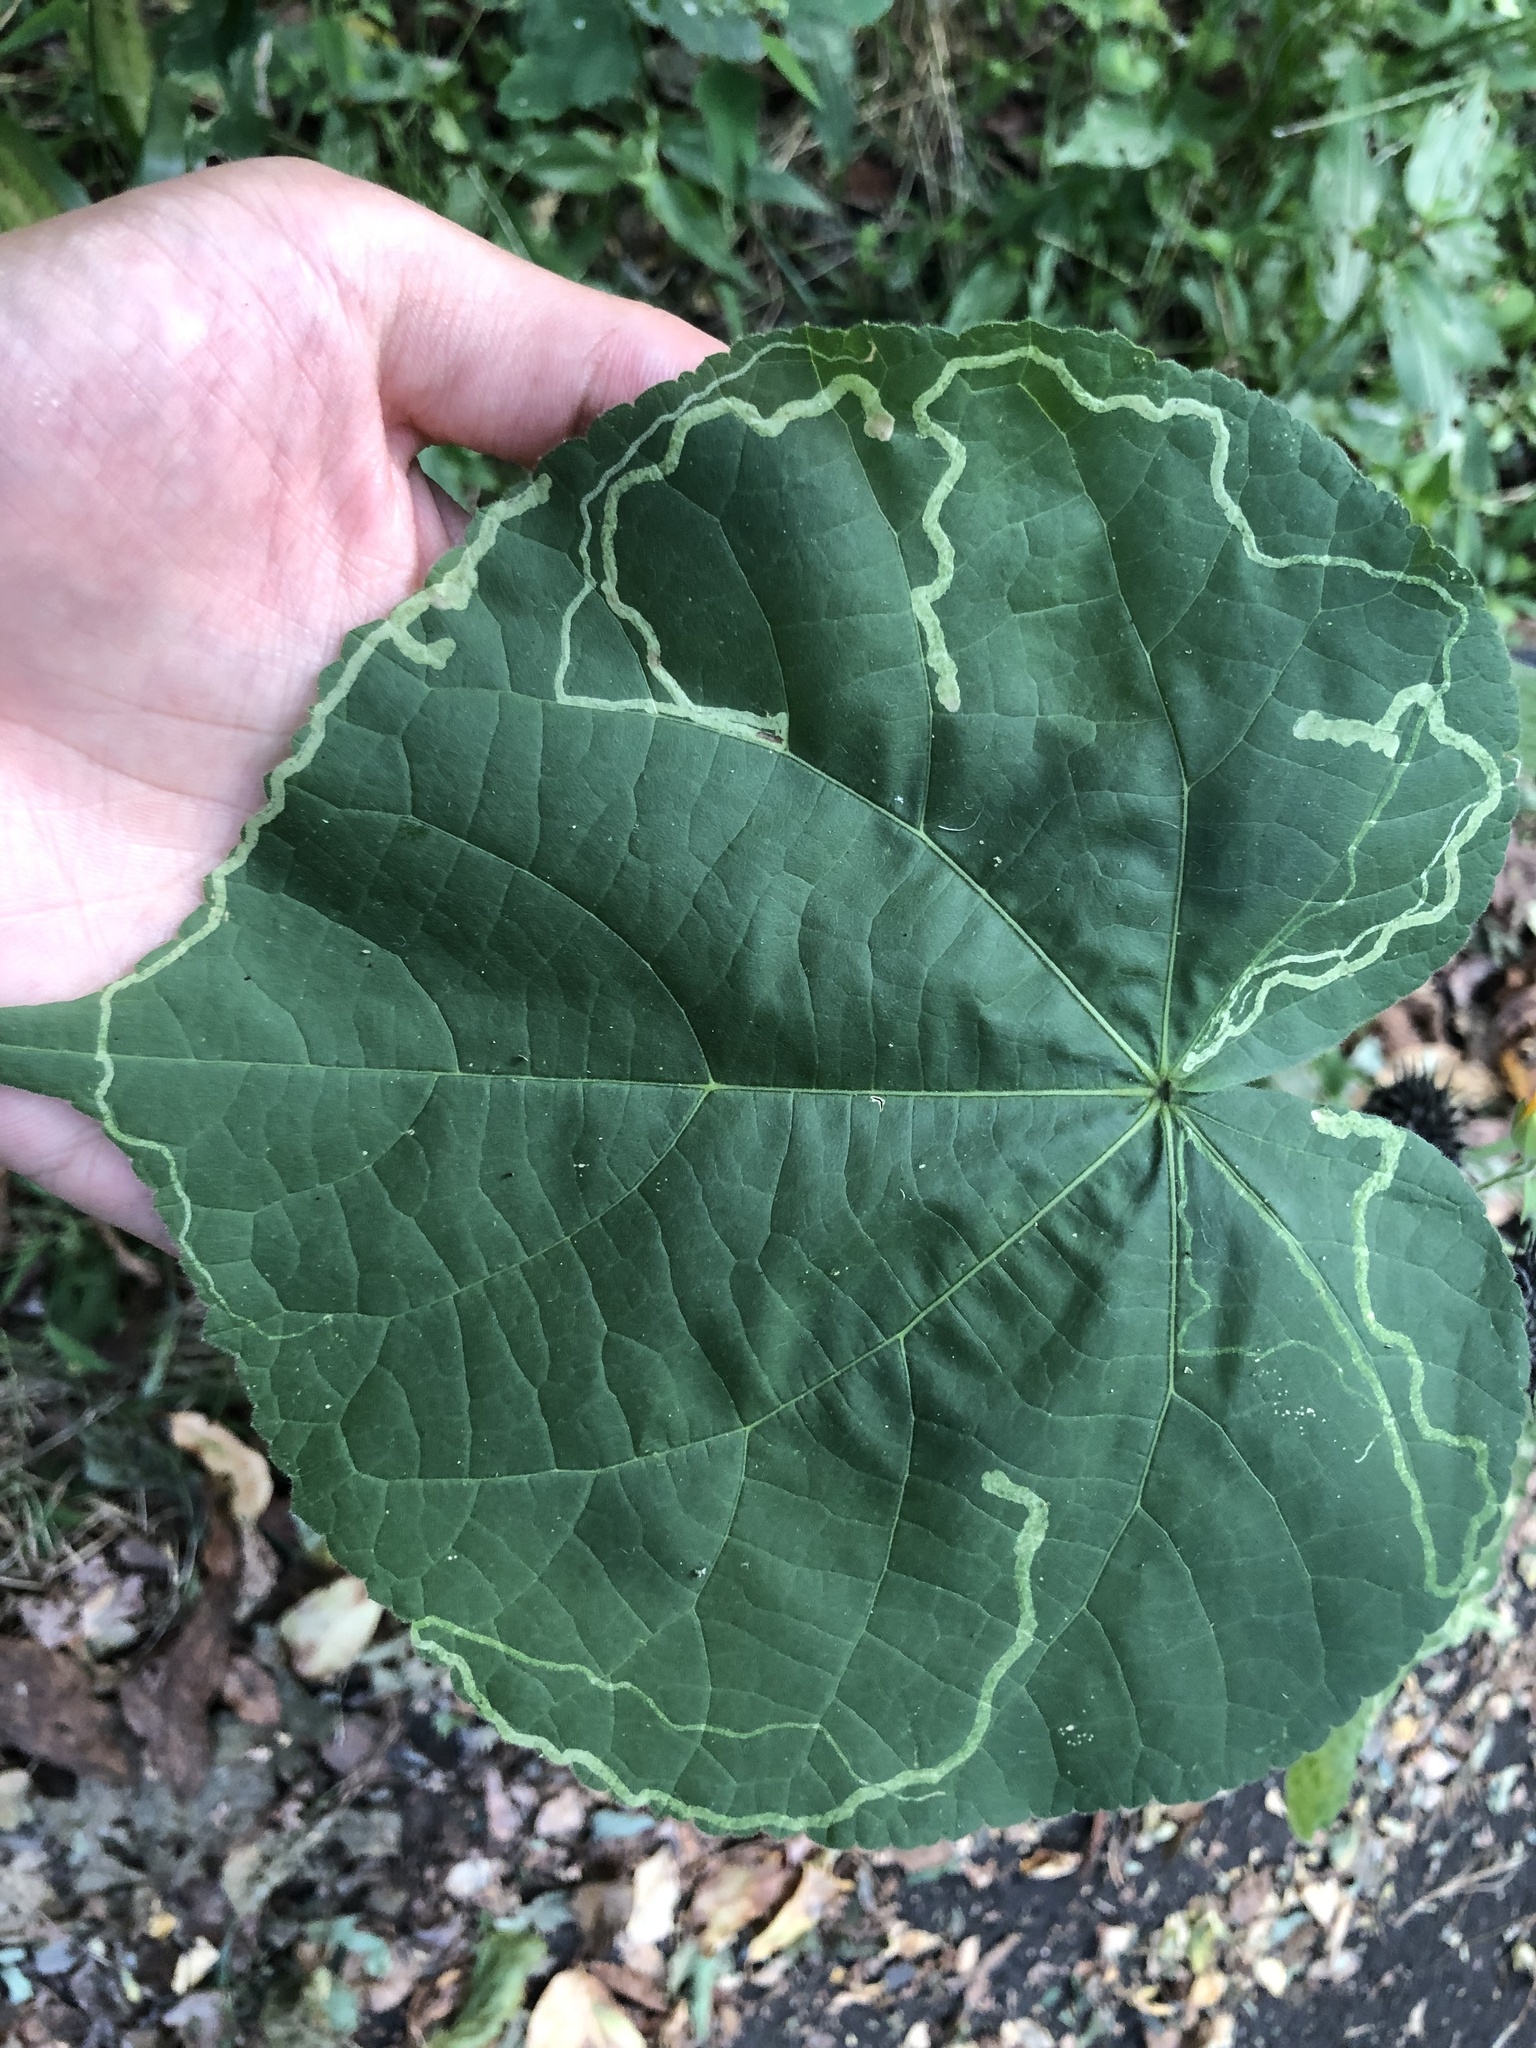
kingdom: Animalia
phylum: Arthropoda
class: Insecta
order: Diptera
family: Agromyzidae
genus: Calycomyza
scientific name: Calycomyza malvae
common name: Mallow leaf miner
